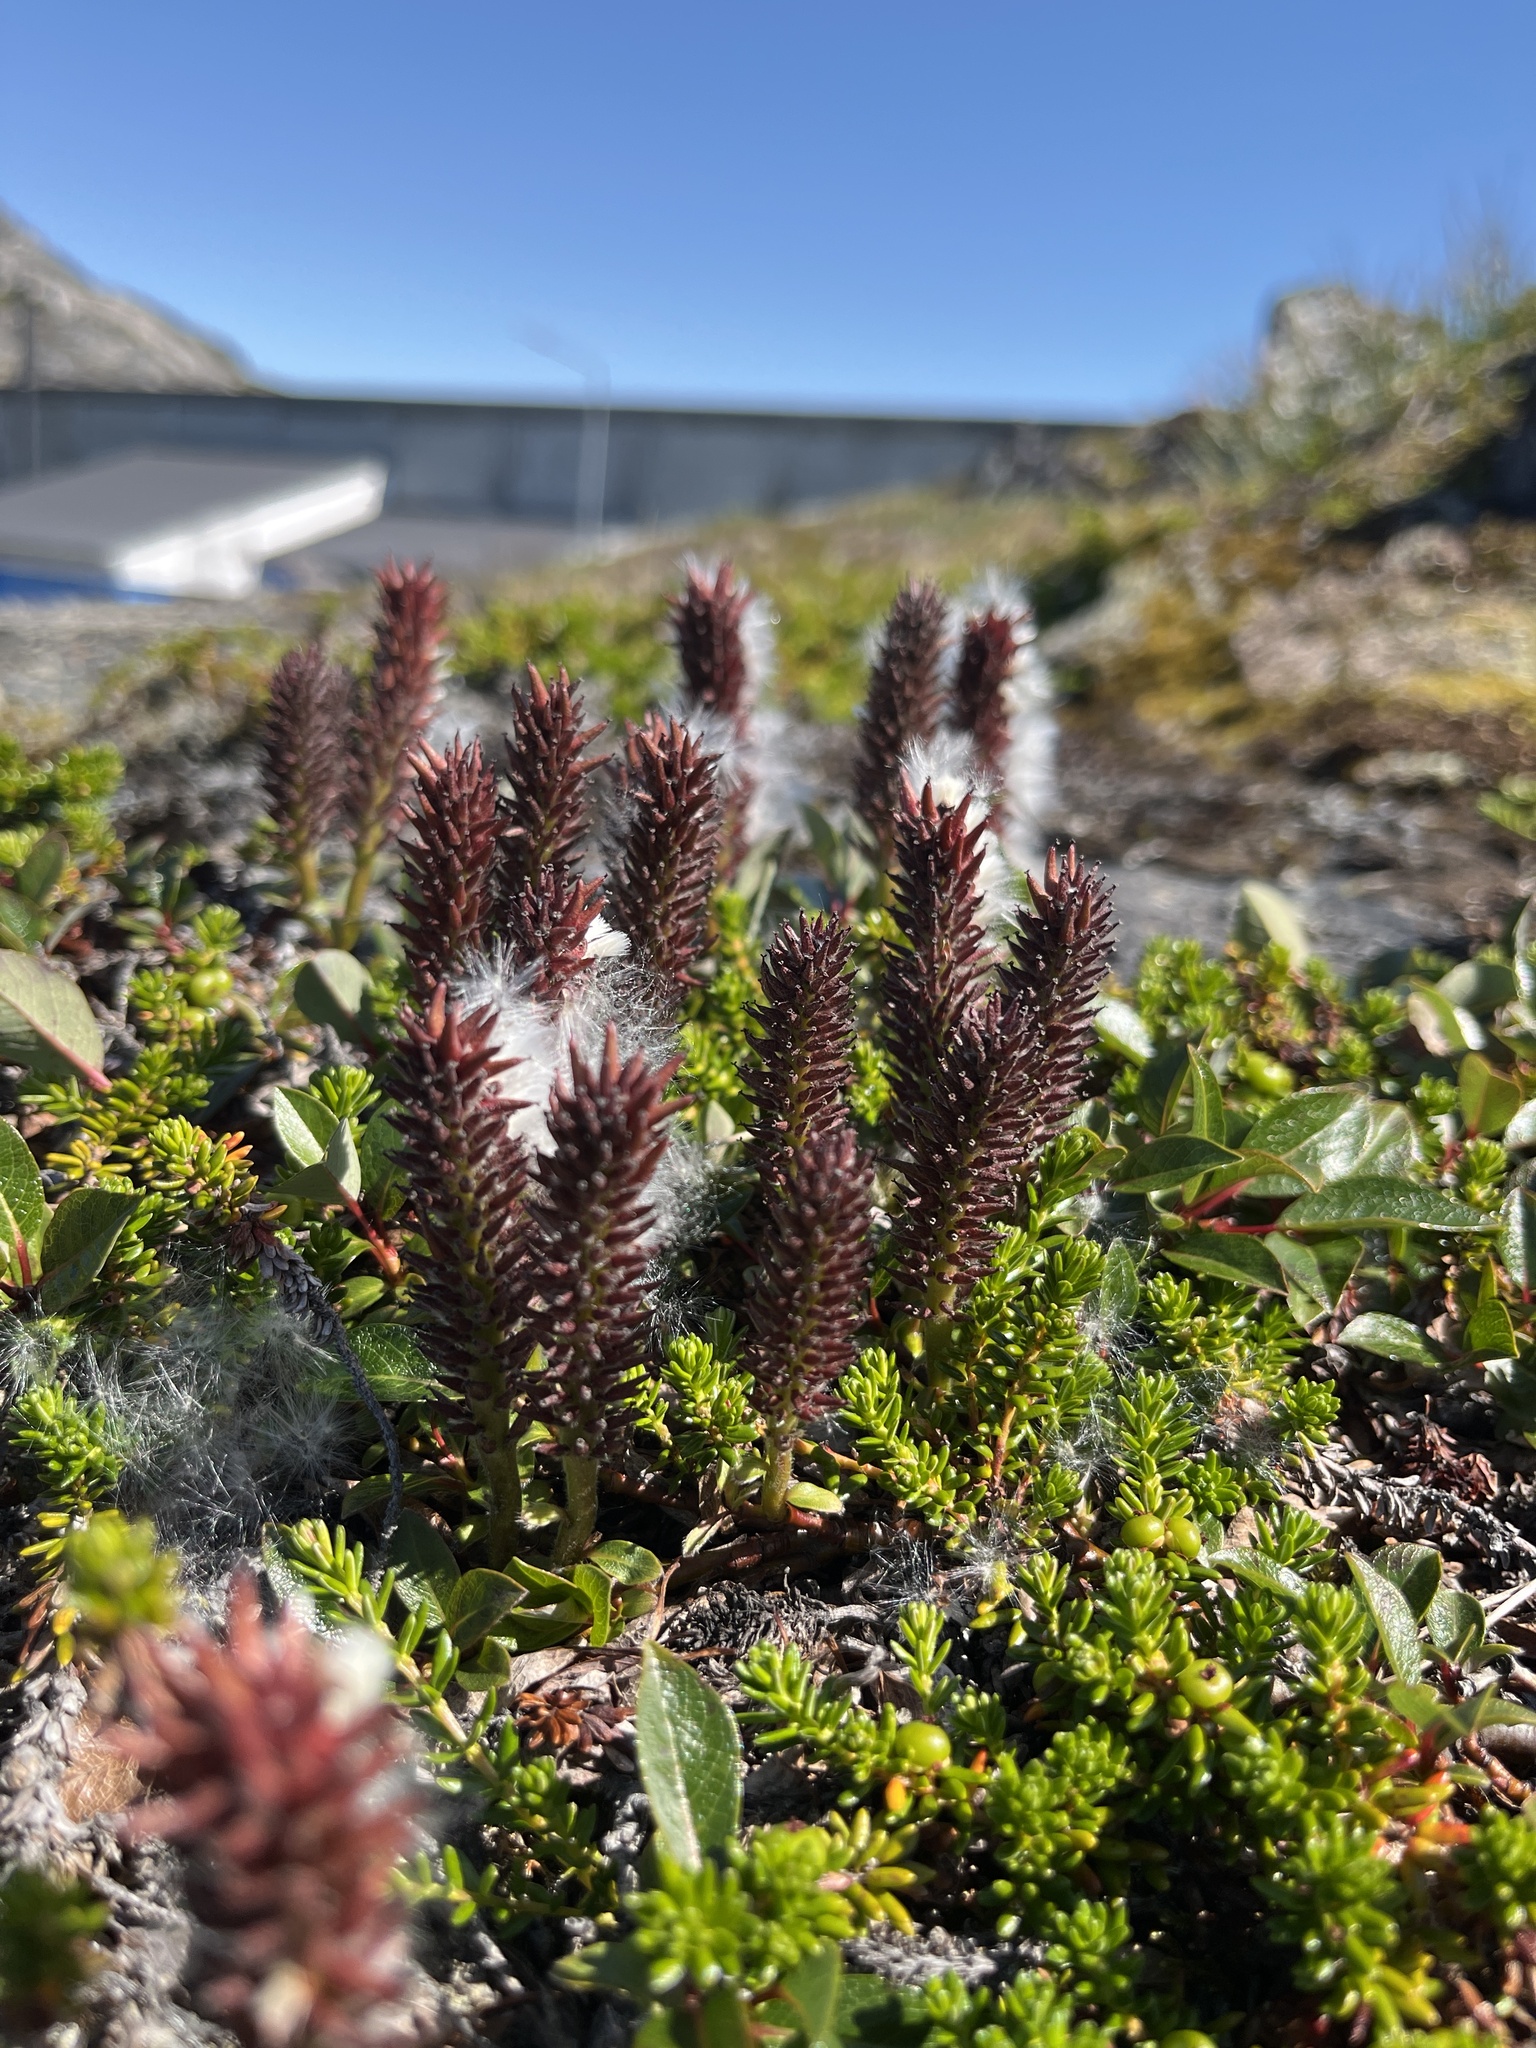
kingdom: Plantae
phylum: Tracheophyta
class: Magnoliopsida
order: Malpighiales
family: Salicaceae
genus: Salix
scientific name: Salix arctophila
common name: Greenland willow
